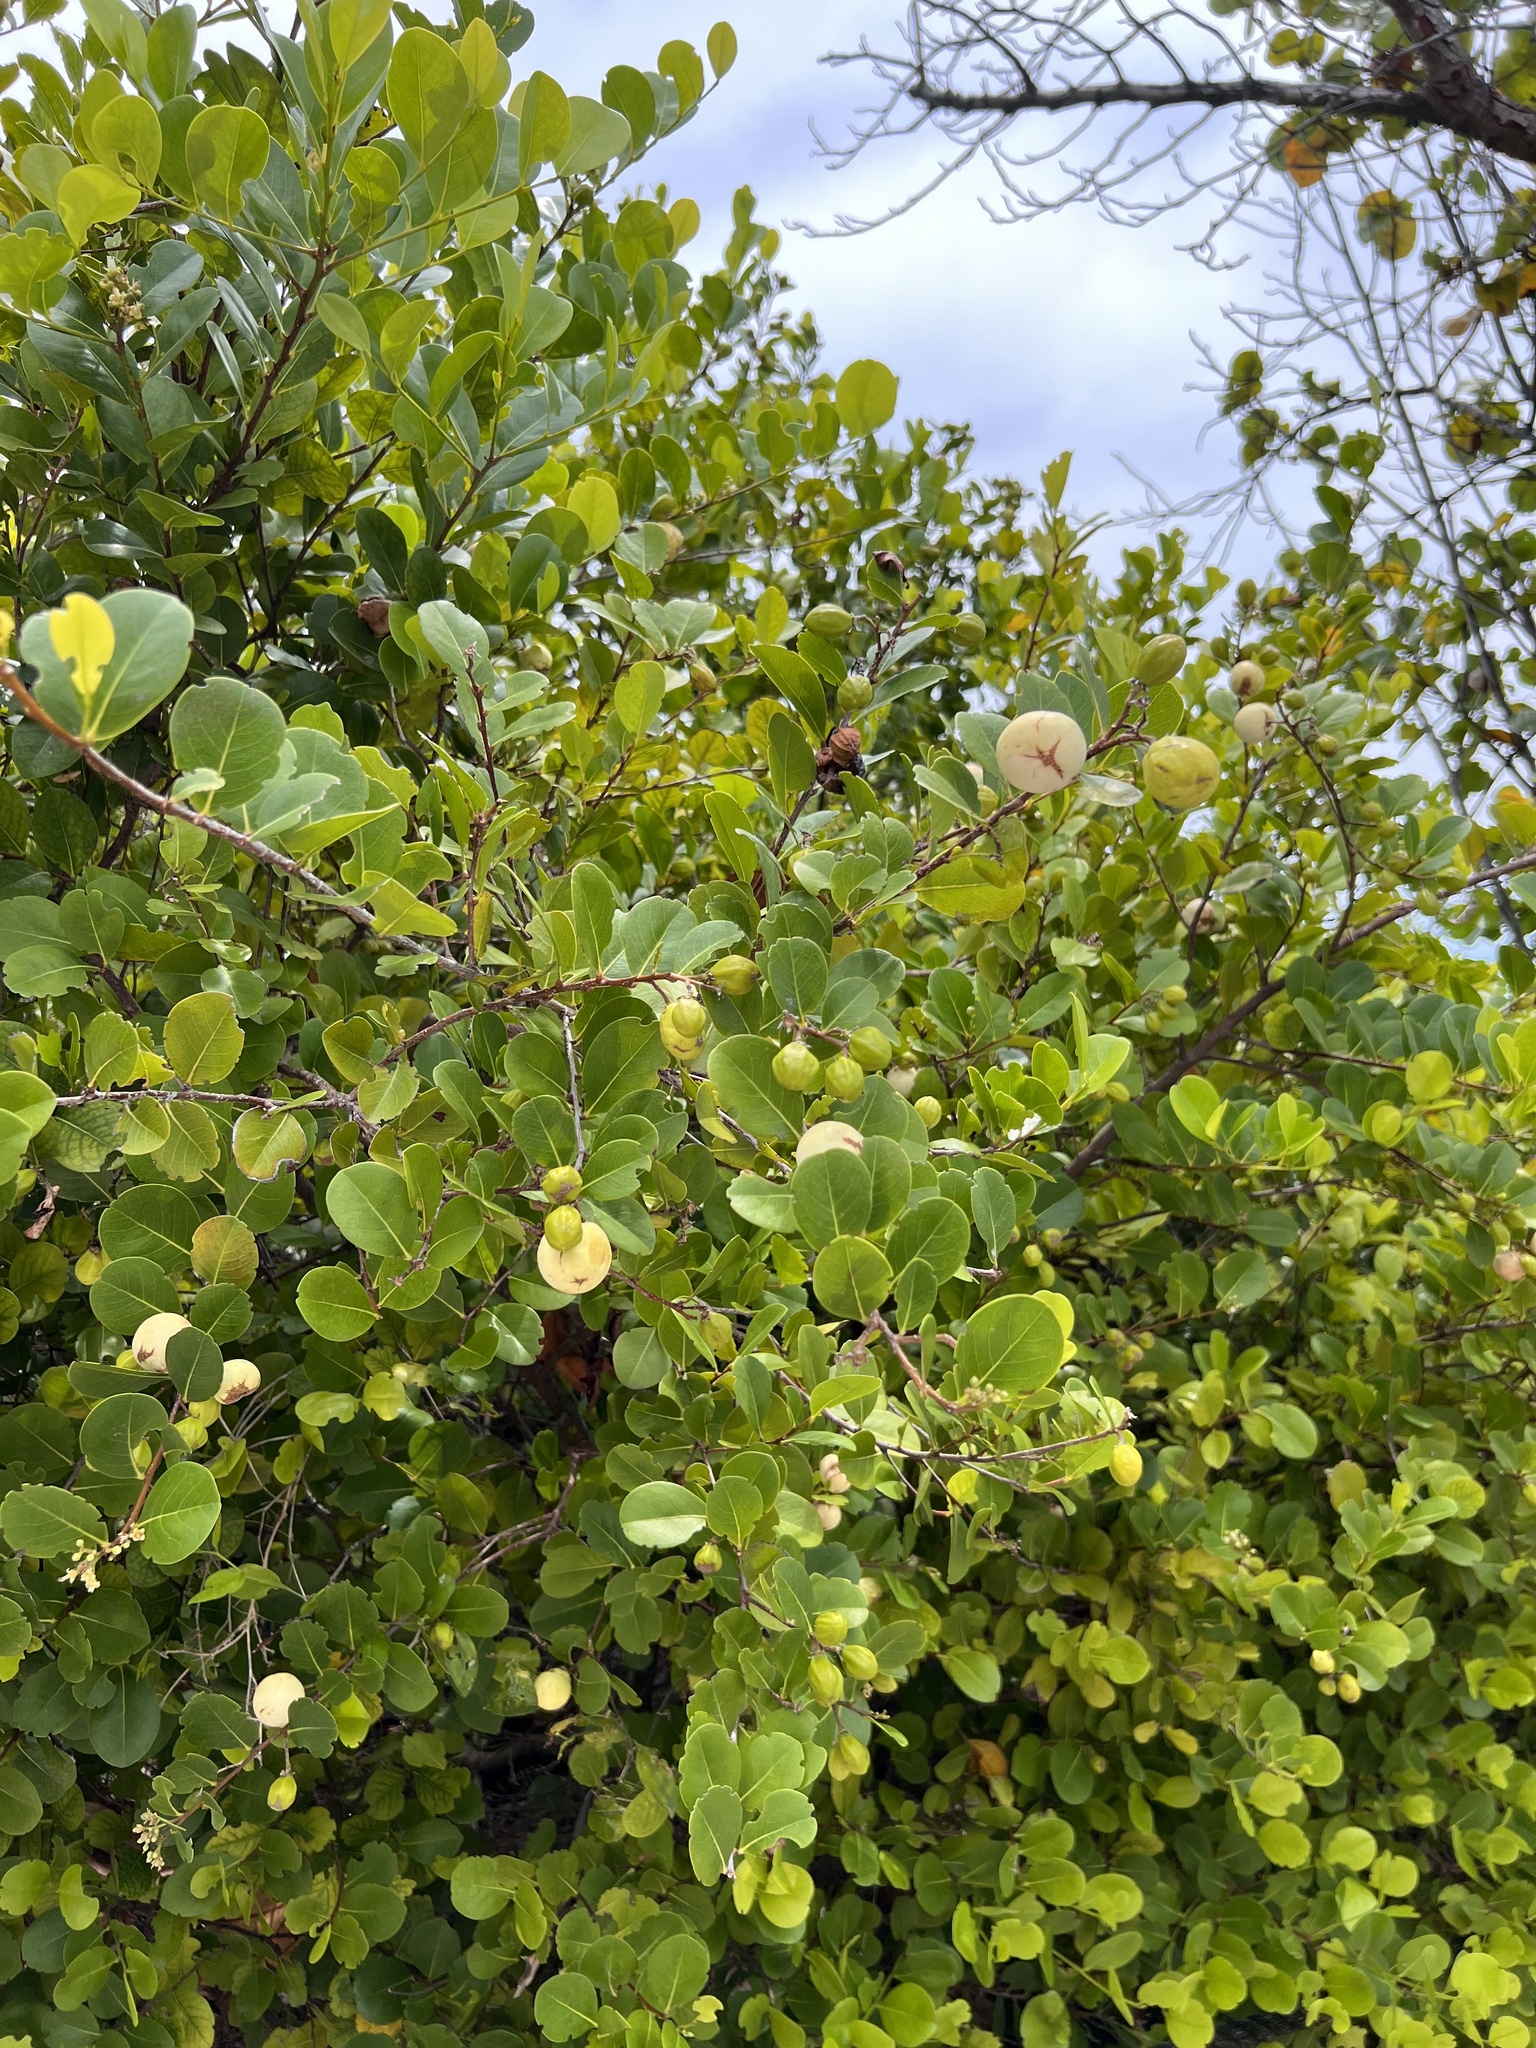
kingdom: Plantae
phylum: Tracheophyta
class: Magnoliopsida
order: Malpighiales
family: Chrysobalanaceae
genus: Chrysobalanus
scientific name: Chrysobalanus icaco
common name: Coco plum
